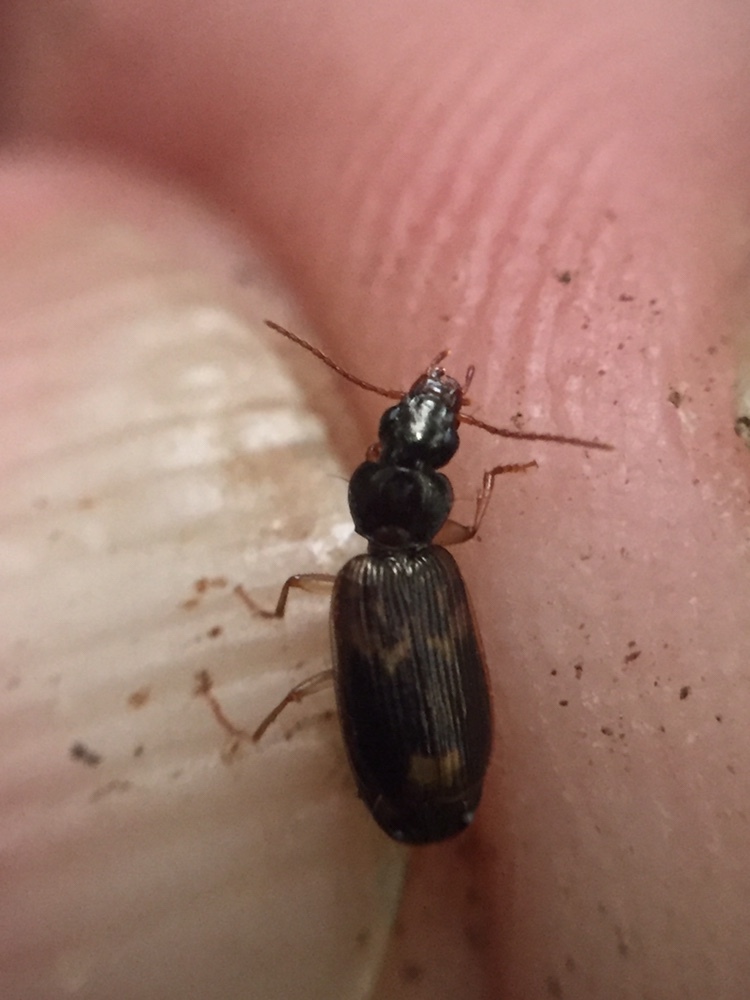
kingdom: Animalia
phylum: Arthropoda
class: Insecta
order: Coleoptera
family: Carabidae
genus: Anomotarus
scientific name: Anomotarus variegatus
